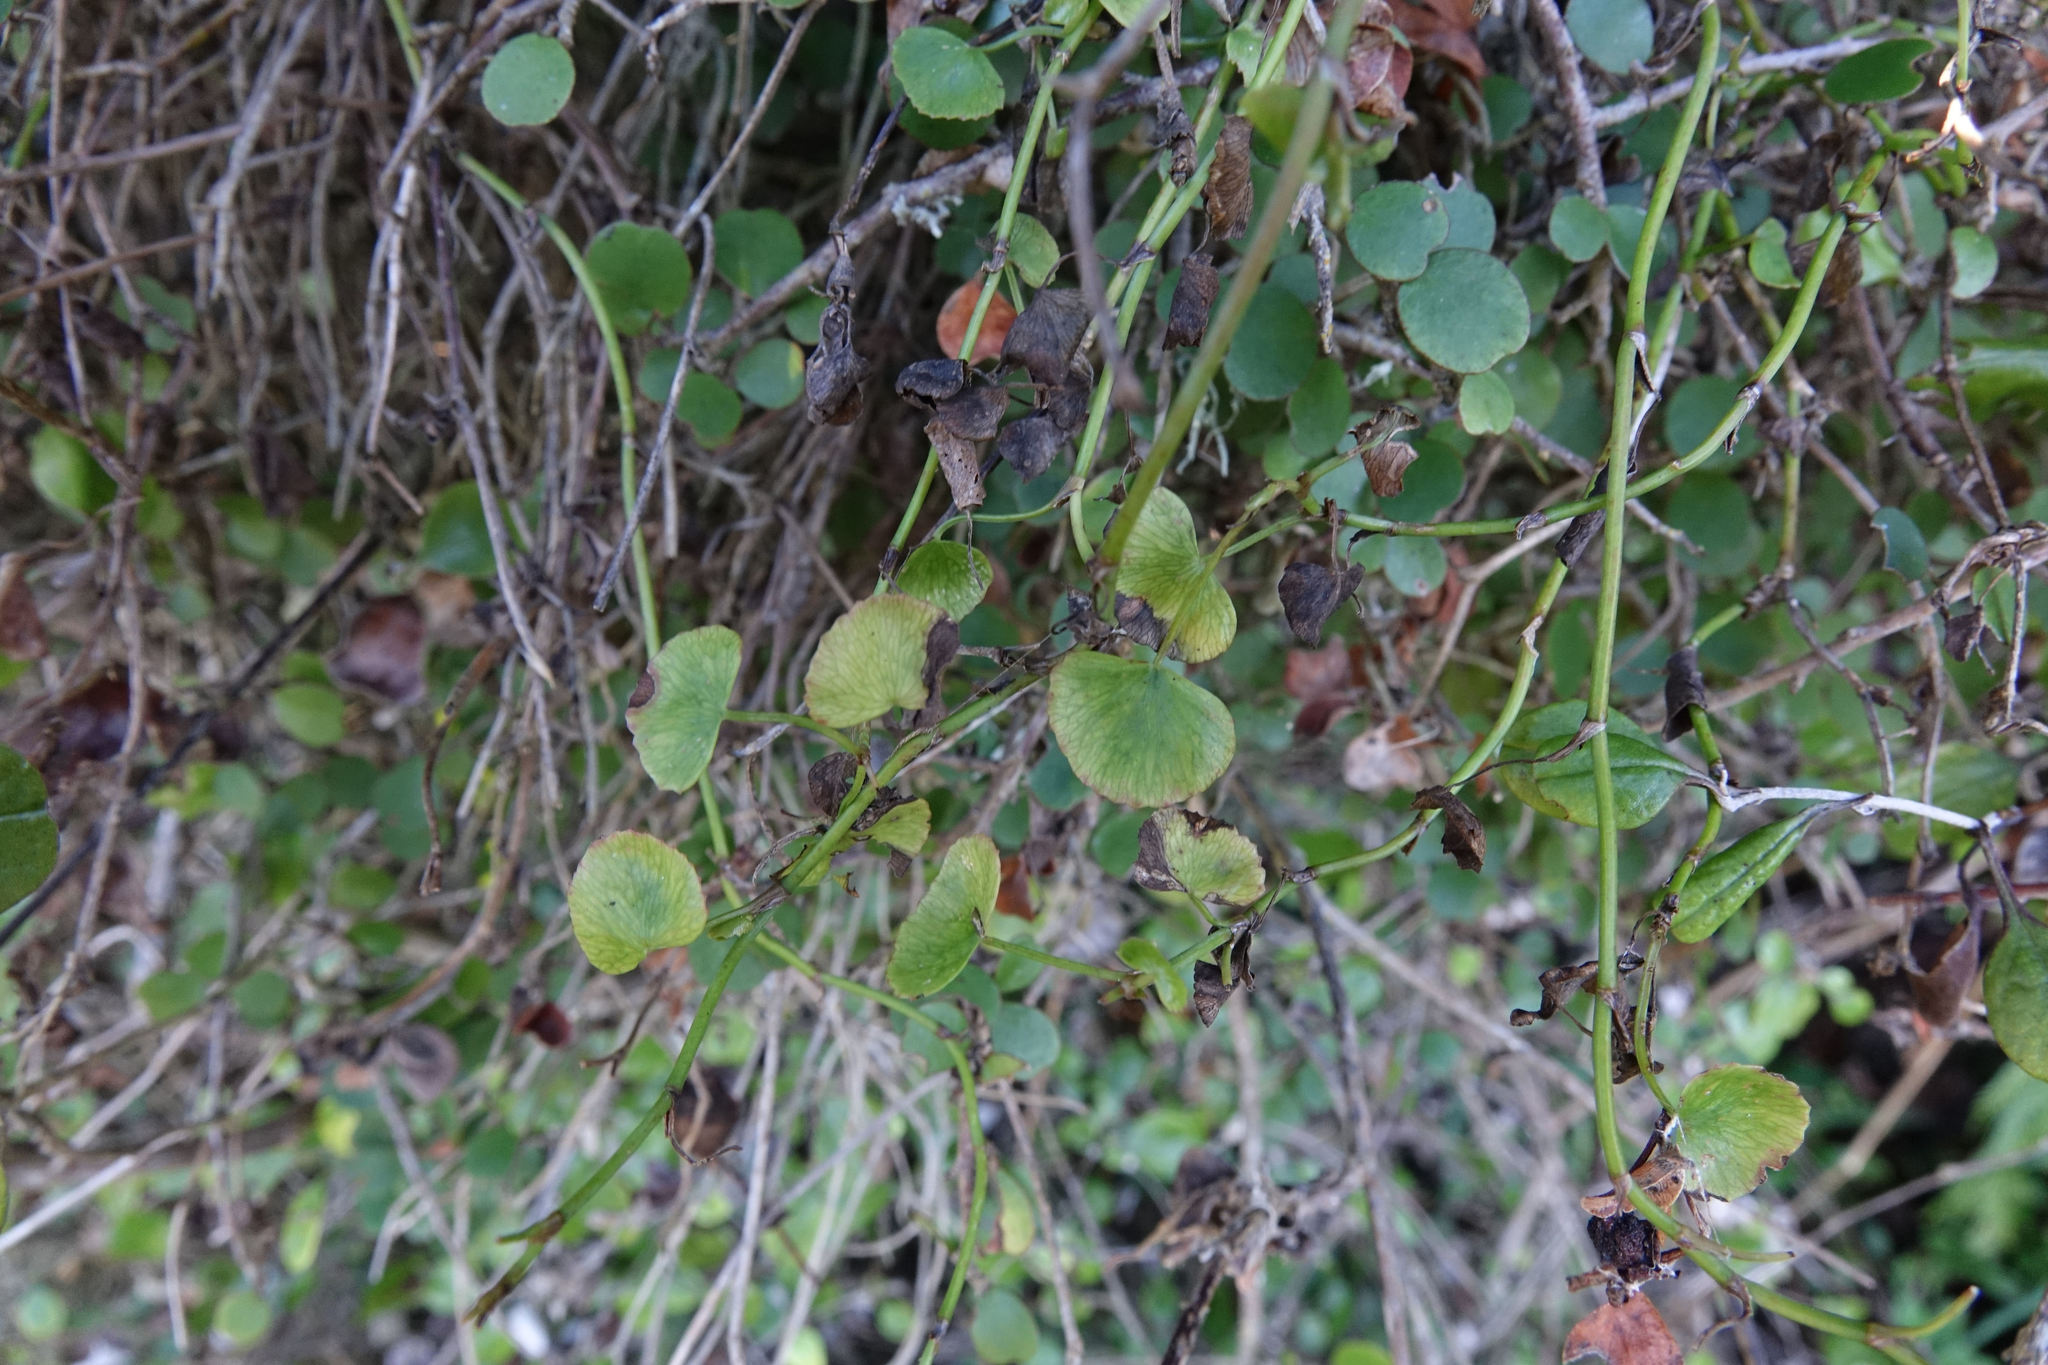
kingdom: Plantae
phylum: Tracheophyta
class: Magnoliopsida
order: Apiales
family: Apiaceae
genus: Scandia
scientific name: Scandia geniculata
